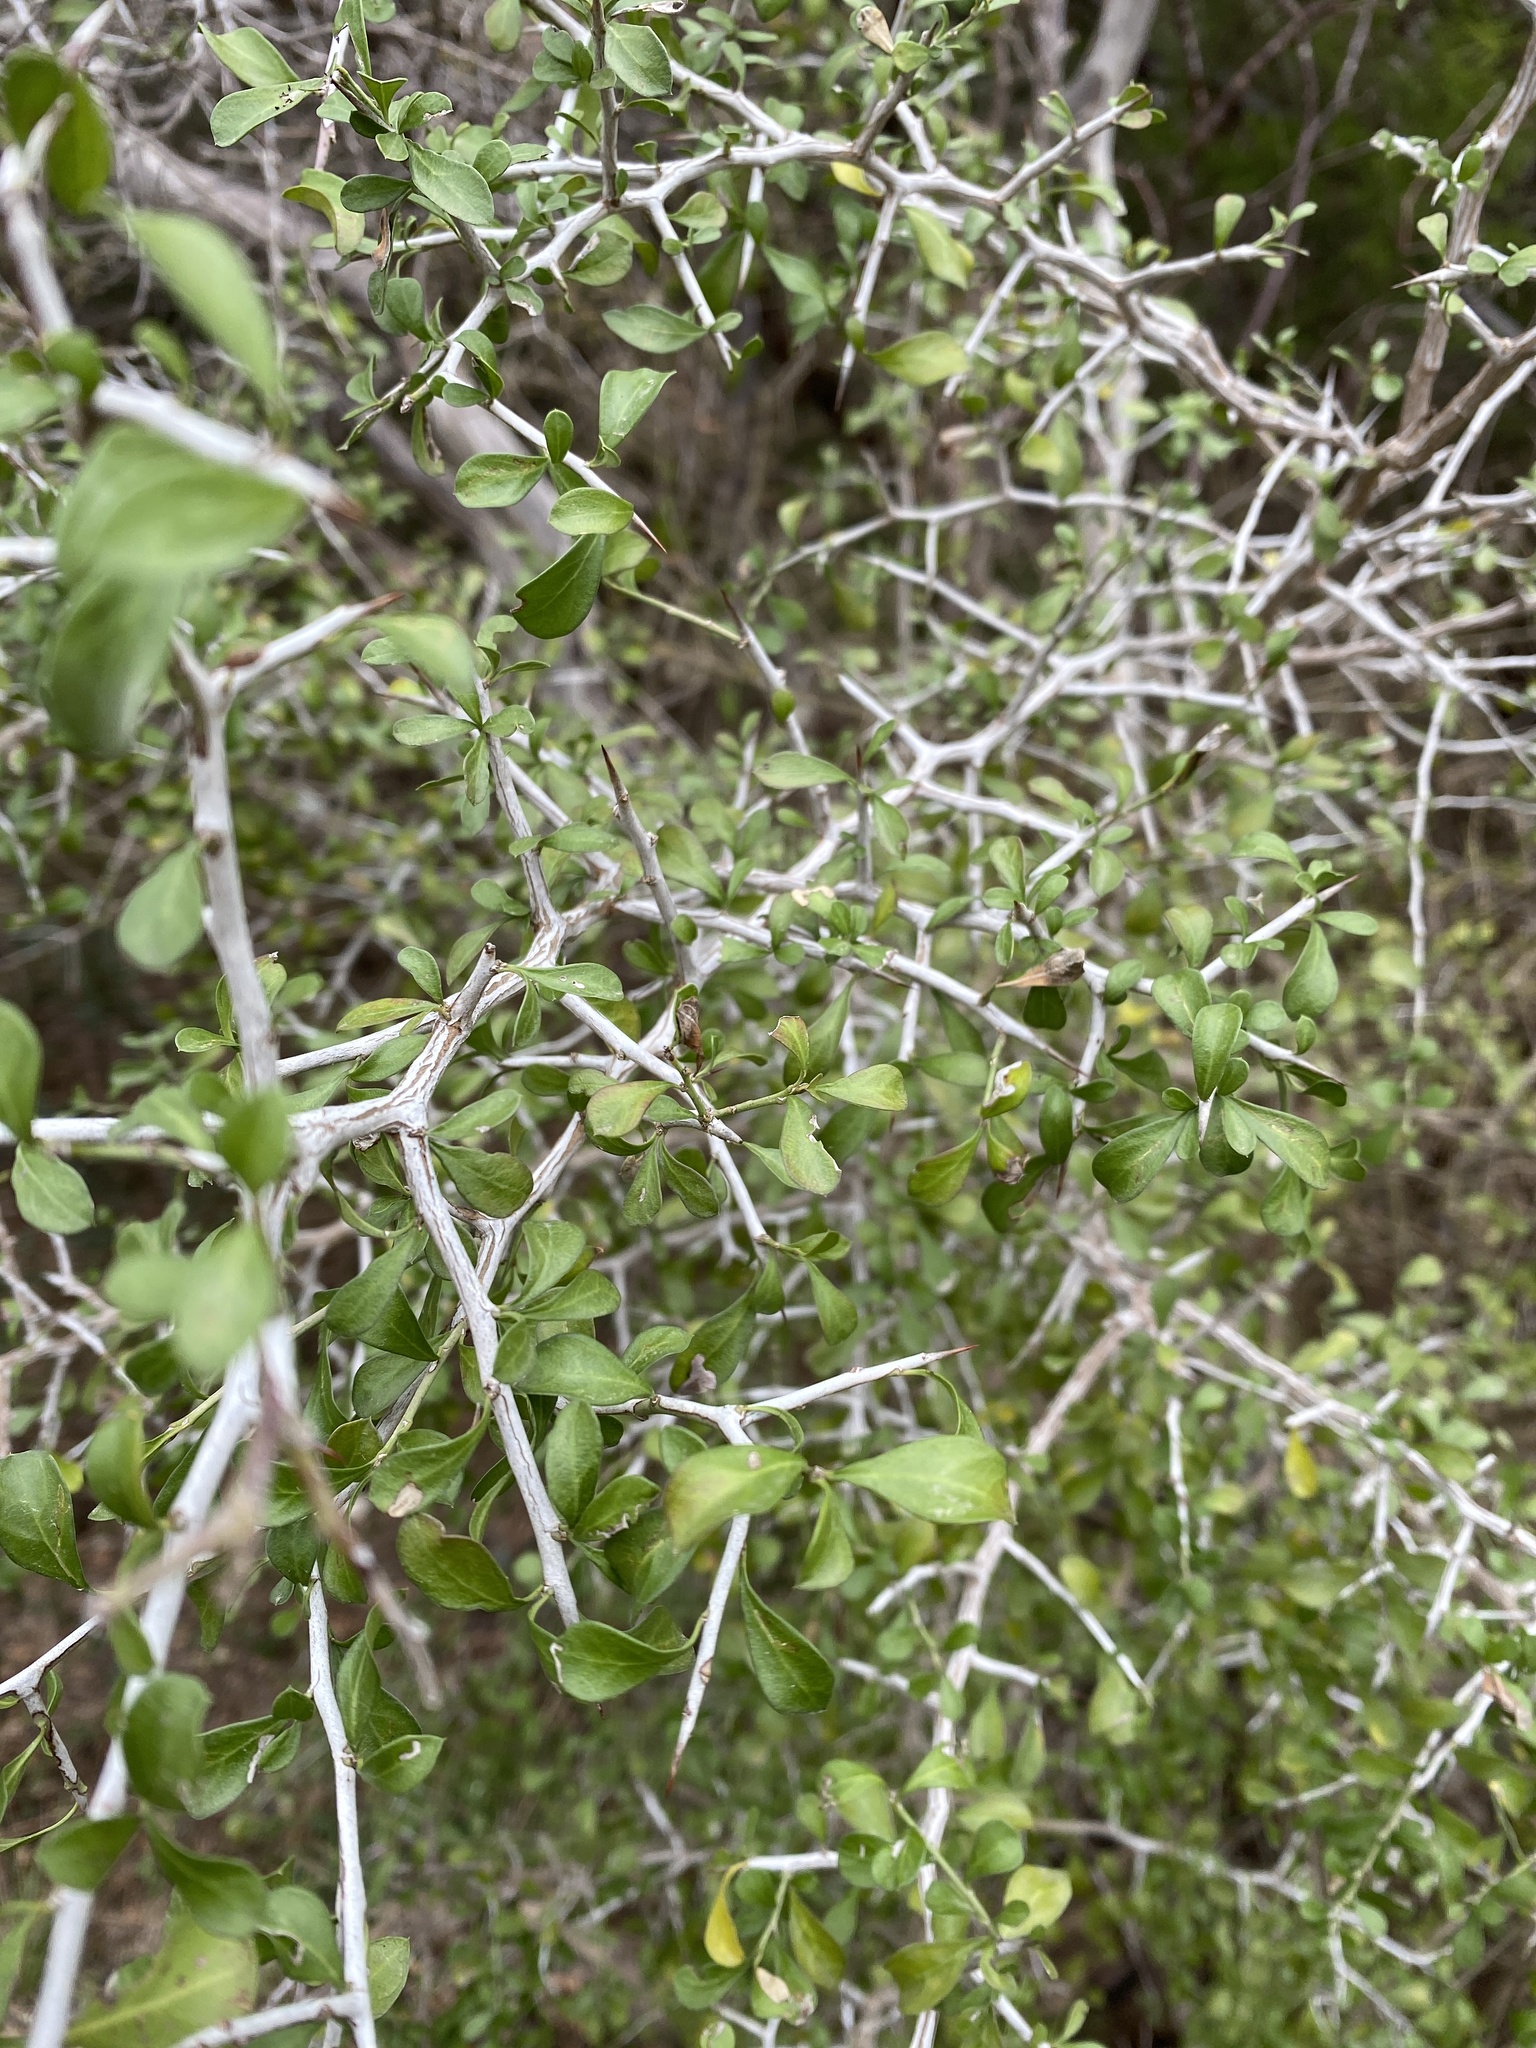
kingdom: Plantae
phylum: Tracheophyta
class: Magnoliopsida
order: Rosales
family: Rhamnaceae
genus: Condalia
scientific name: Condalia hookeri
